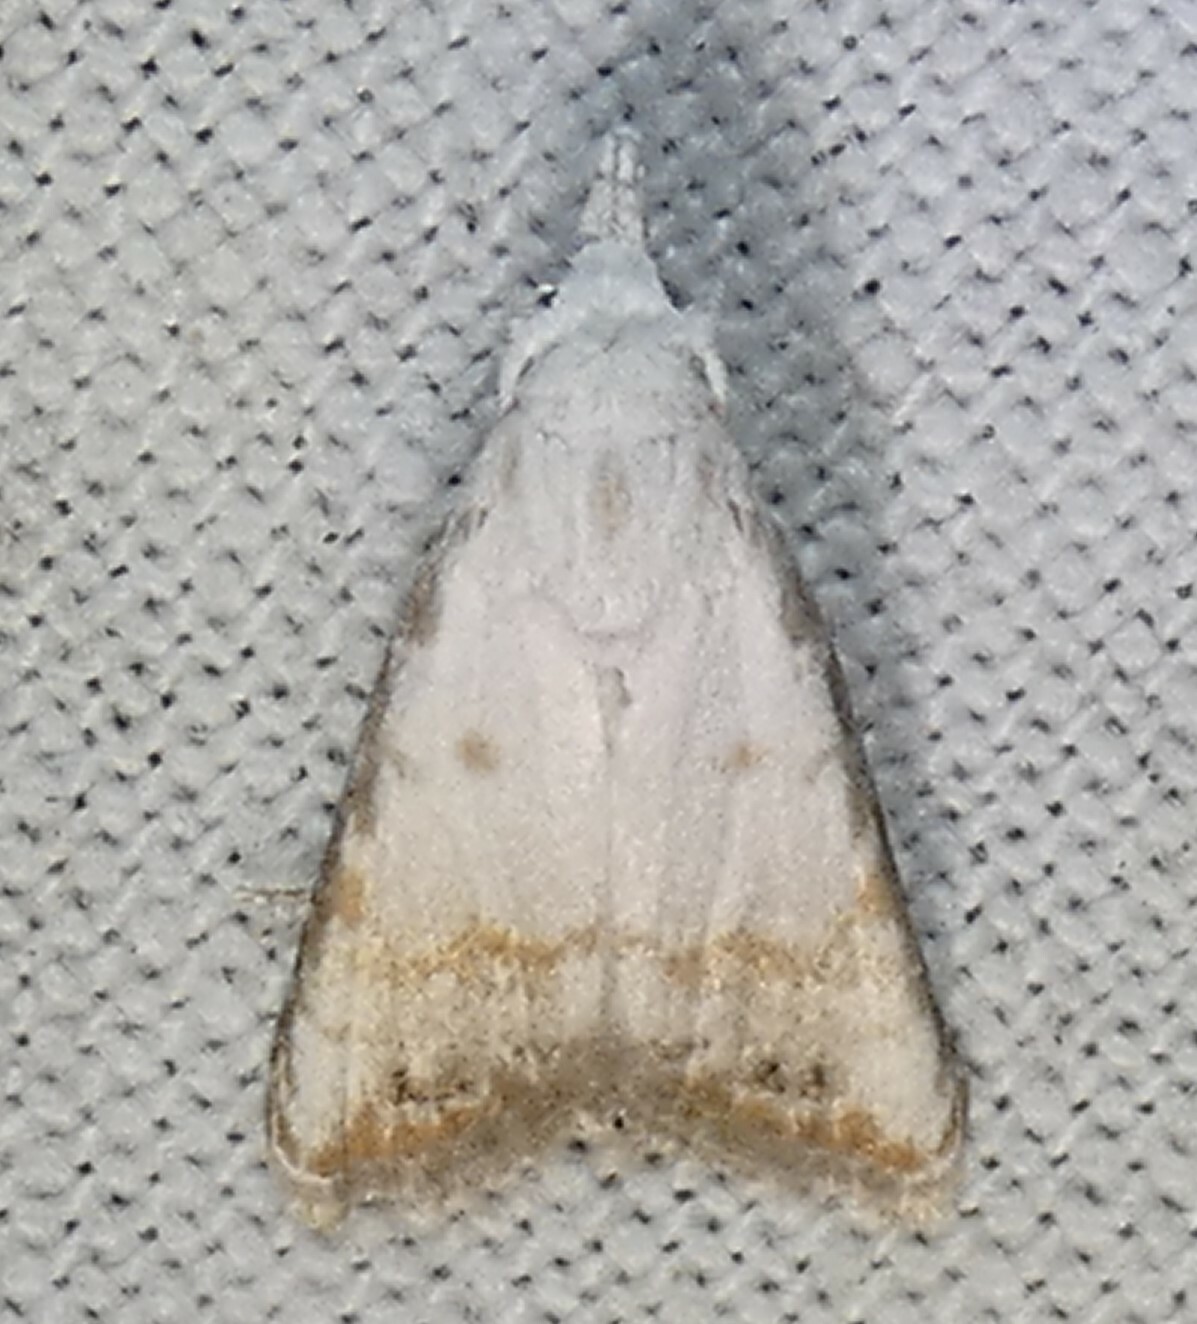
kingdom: Animalia
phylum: Arthropoda
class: Insecta
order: Lepidoptera
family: Nolidae
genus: Nola
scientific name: Nola cereella
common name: Sorghum webworm moth
